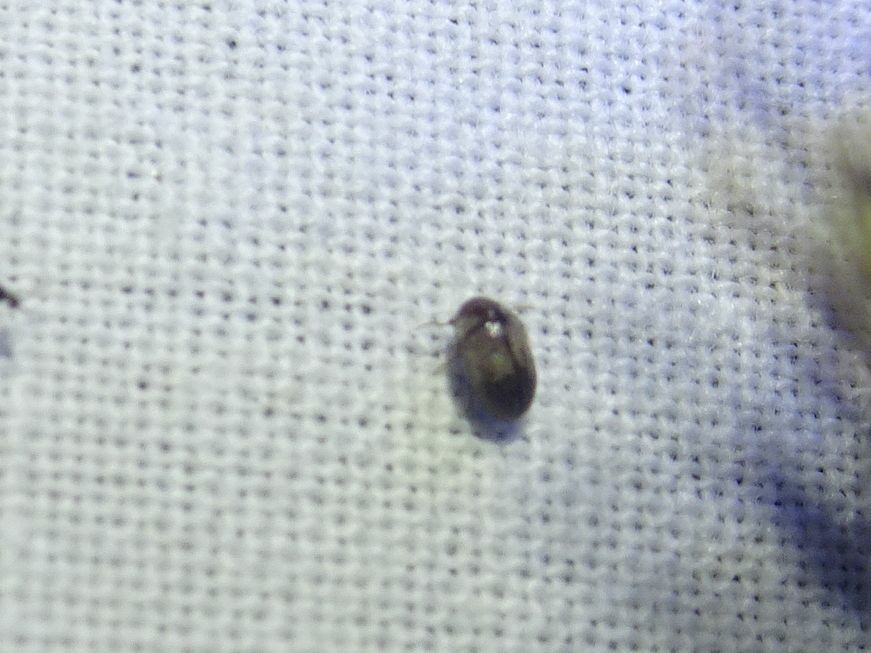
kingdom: Animalia
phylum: Arthropoda
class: Insecta
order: Coleoptera
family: Anobiidae
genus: Mesocoelopus
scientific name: Mesocoelopus niger
